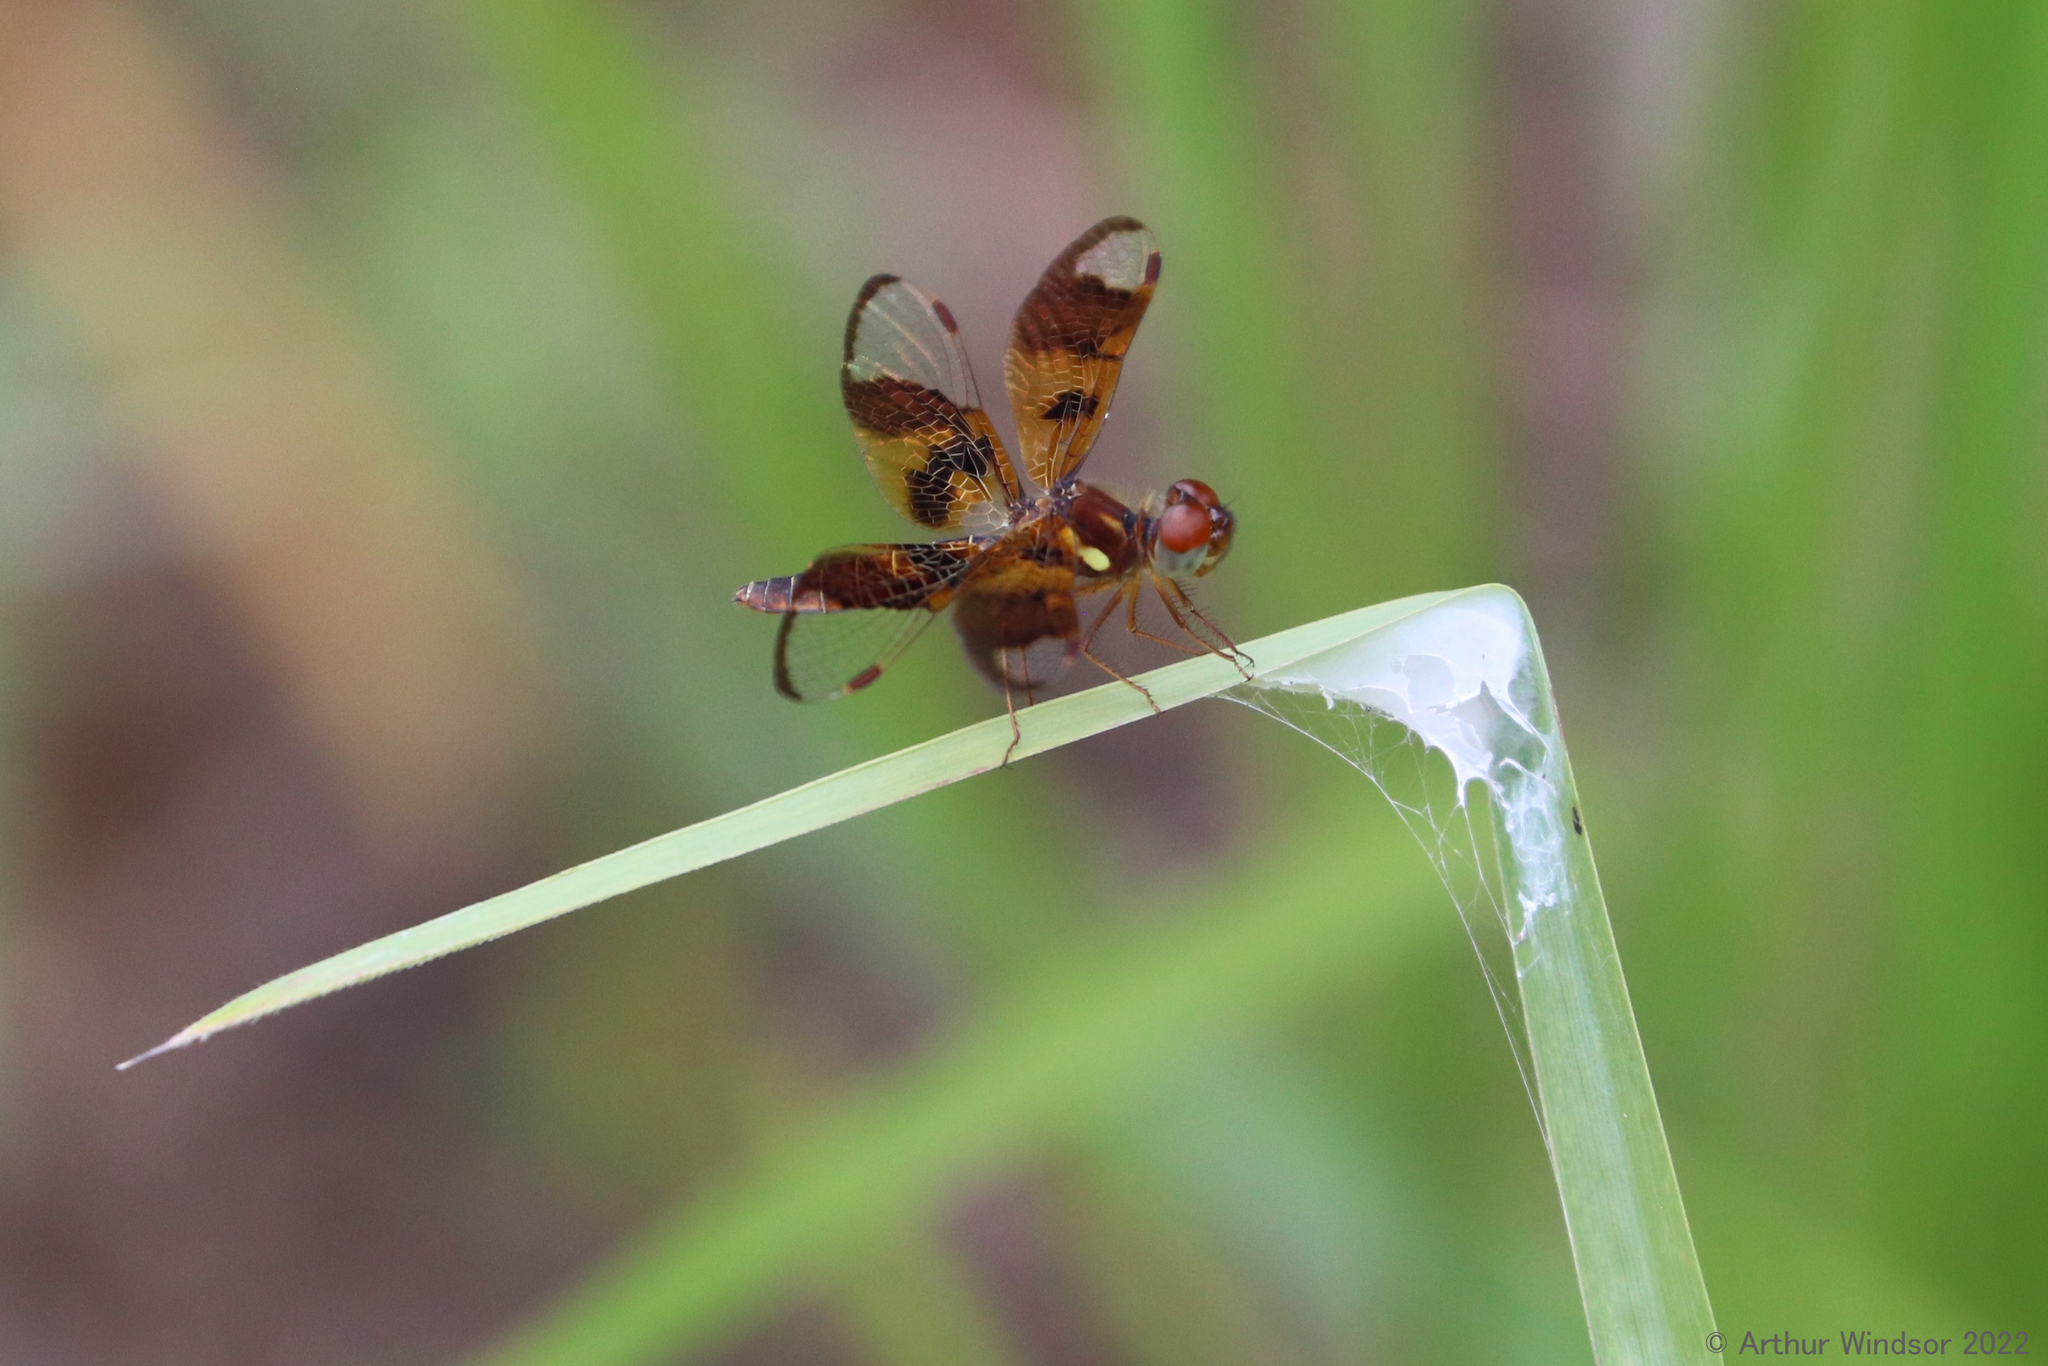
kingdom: Animalia
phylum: Arthropoda
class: Insecta
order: Odonata
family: Libellulidae
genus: Perithemis
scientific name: Perithemis tenera
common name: Eastern amberwing
